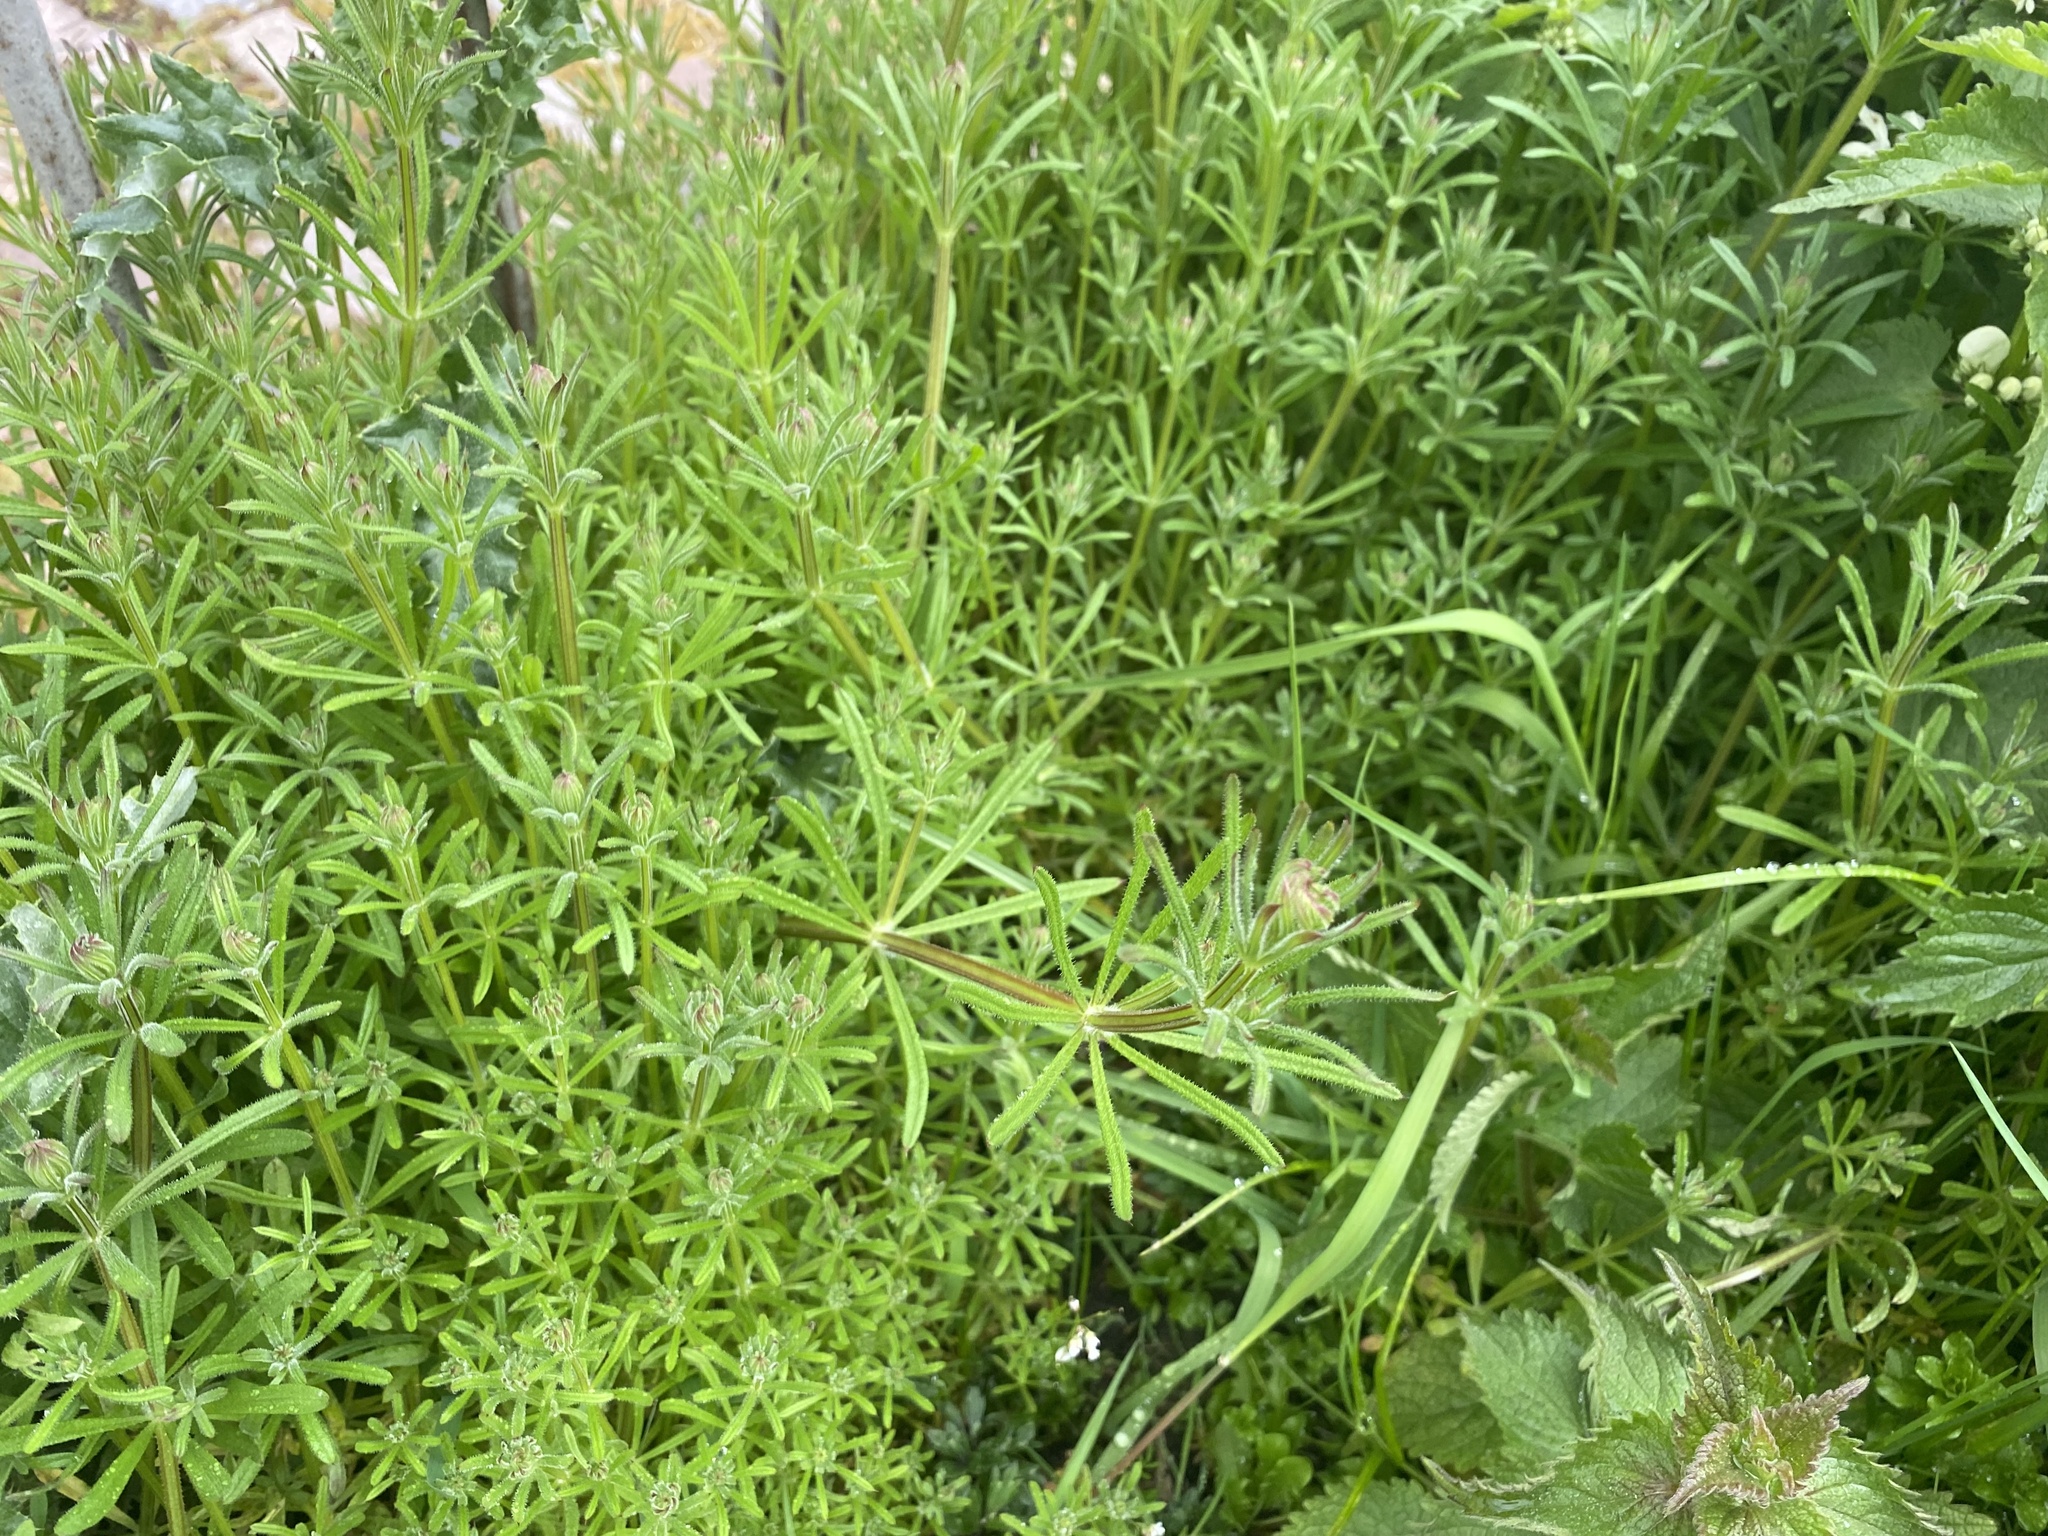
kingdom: Plantae
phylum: Tracheophyta
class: Magnoliopsida
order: Gentianales
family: Rubiaceae
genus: Galium
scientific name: Galium aparine
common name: Cleavers
